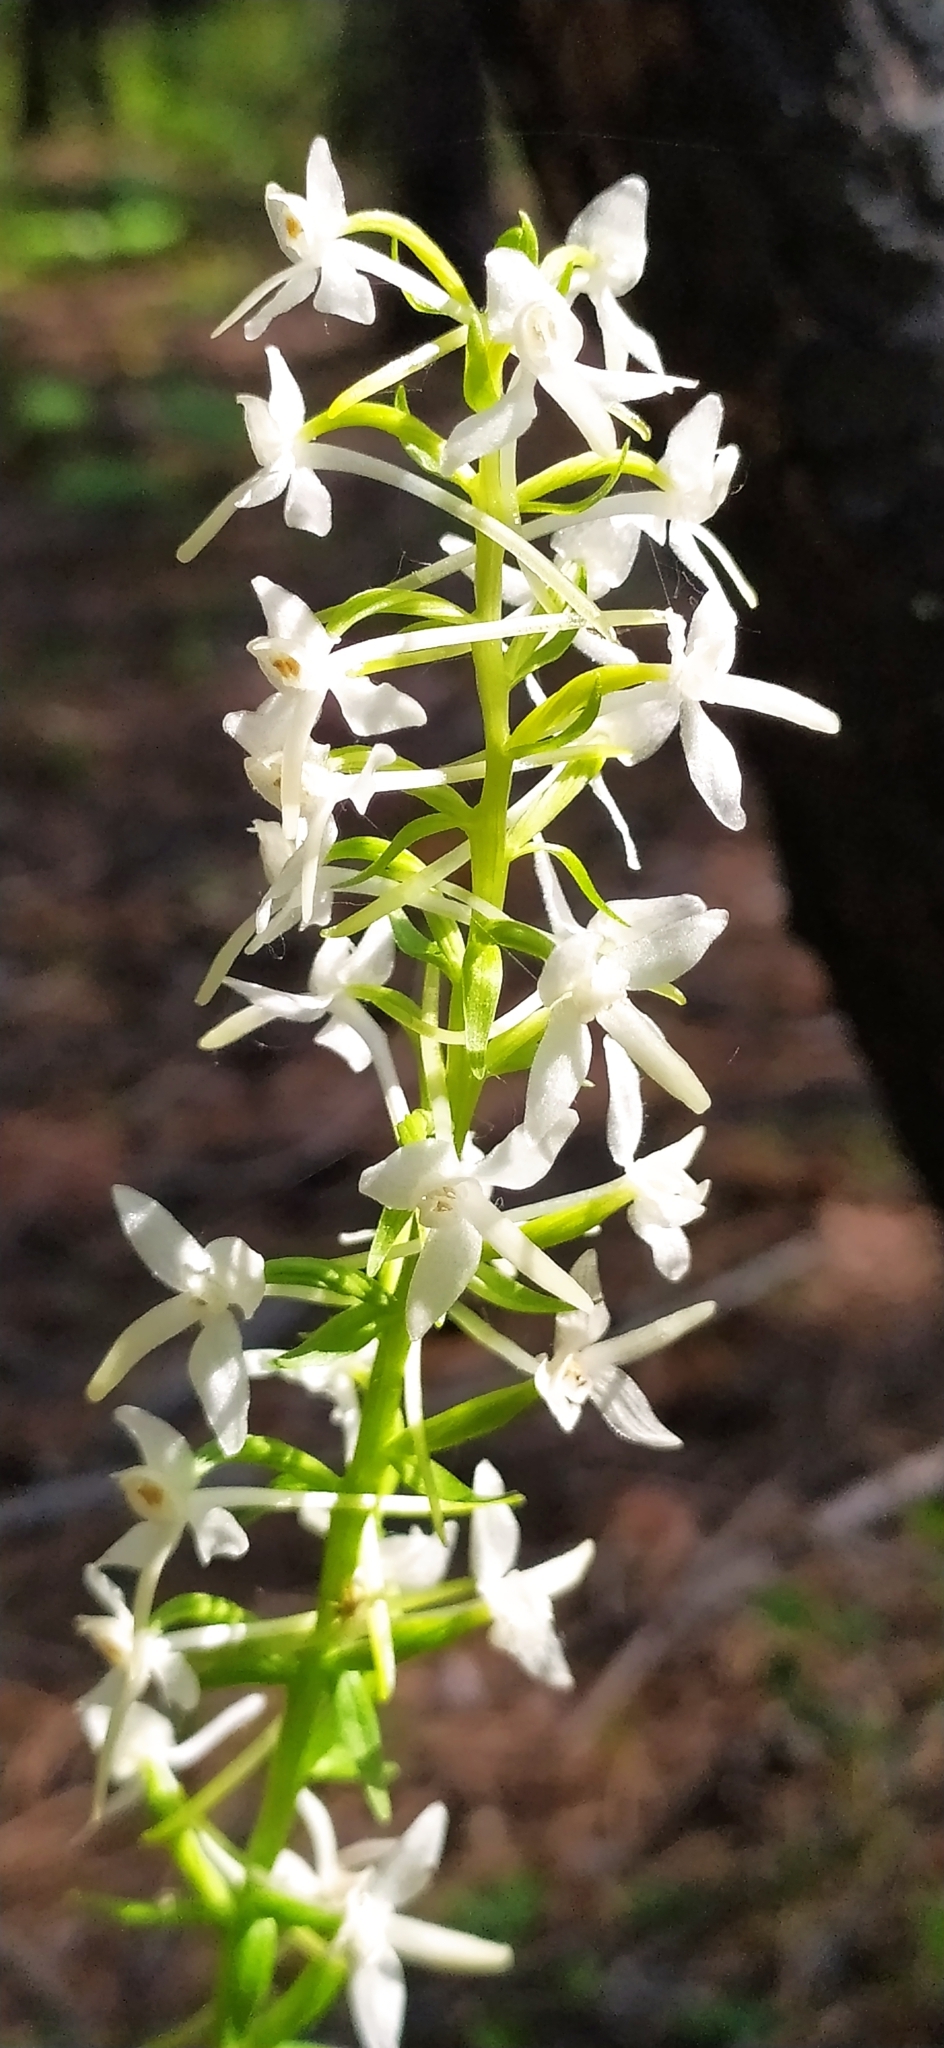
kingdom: Plantae
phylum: Tracheophyta
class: Liliopsida
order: Asparagales
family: Orchidaceae
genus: Platanthera
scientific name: Platanthera bifolia
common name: Lesser butterfly-orchid
